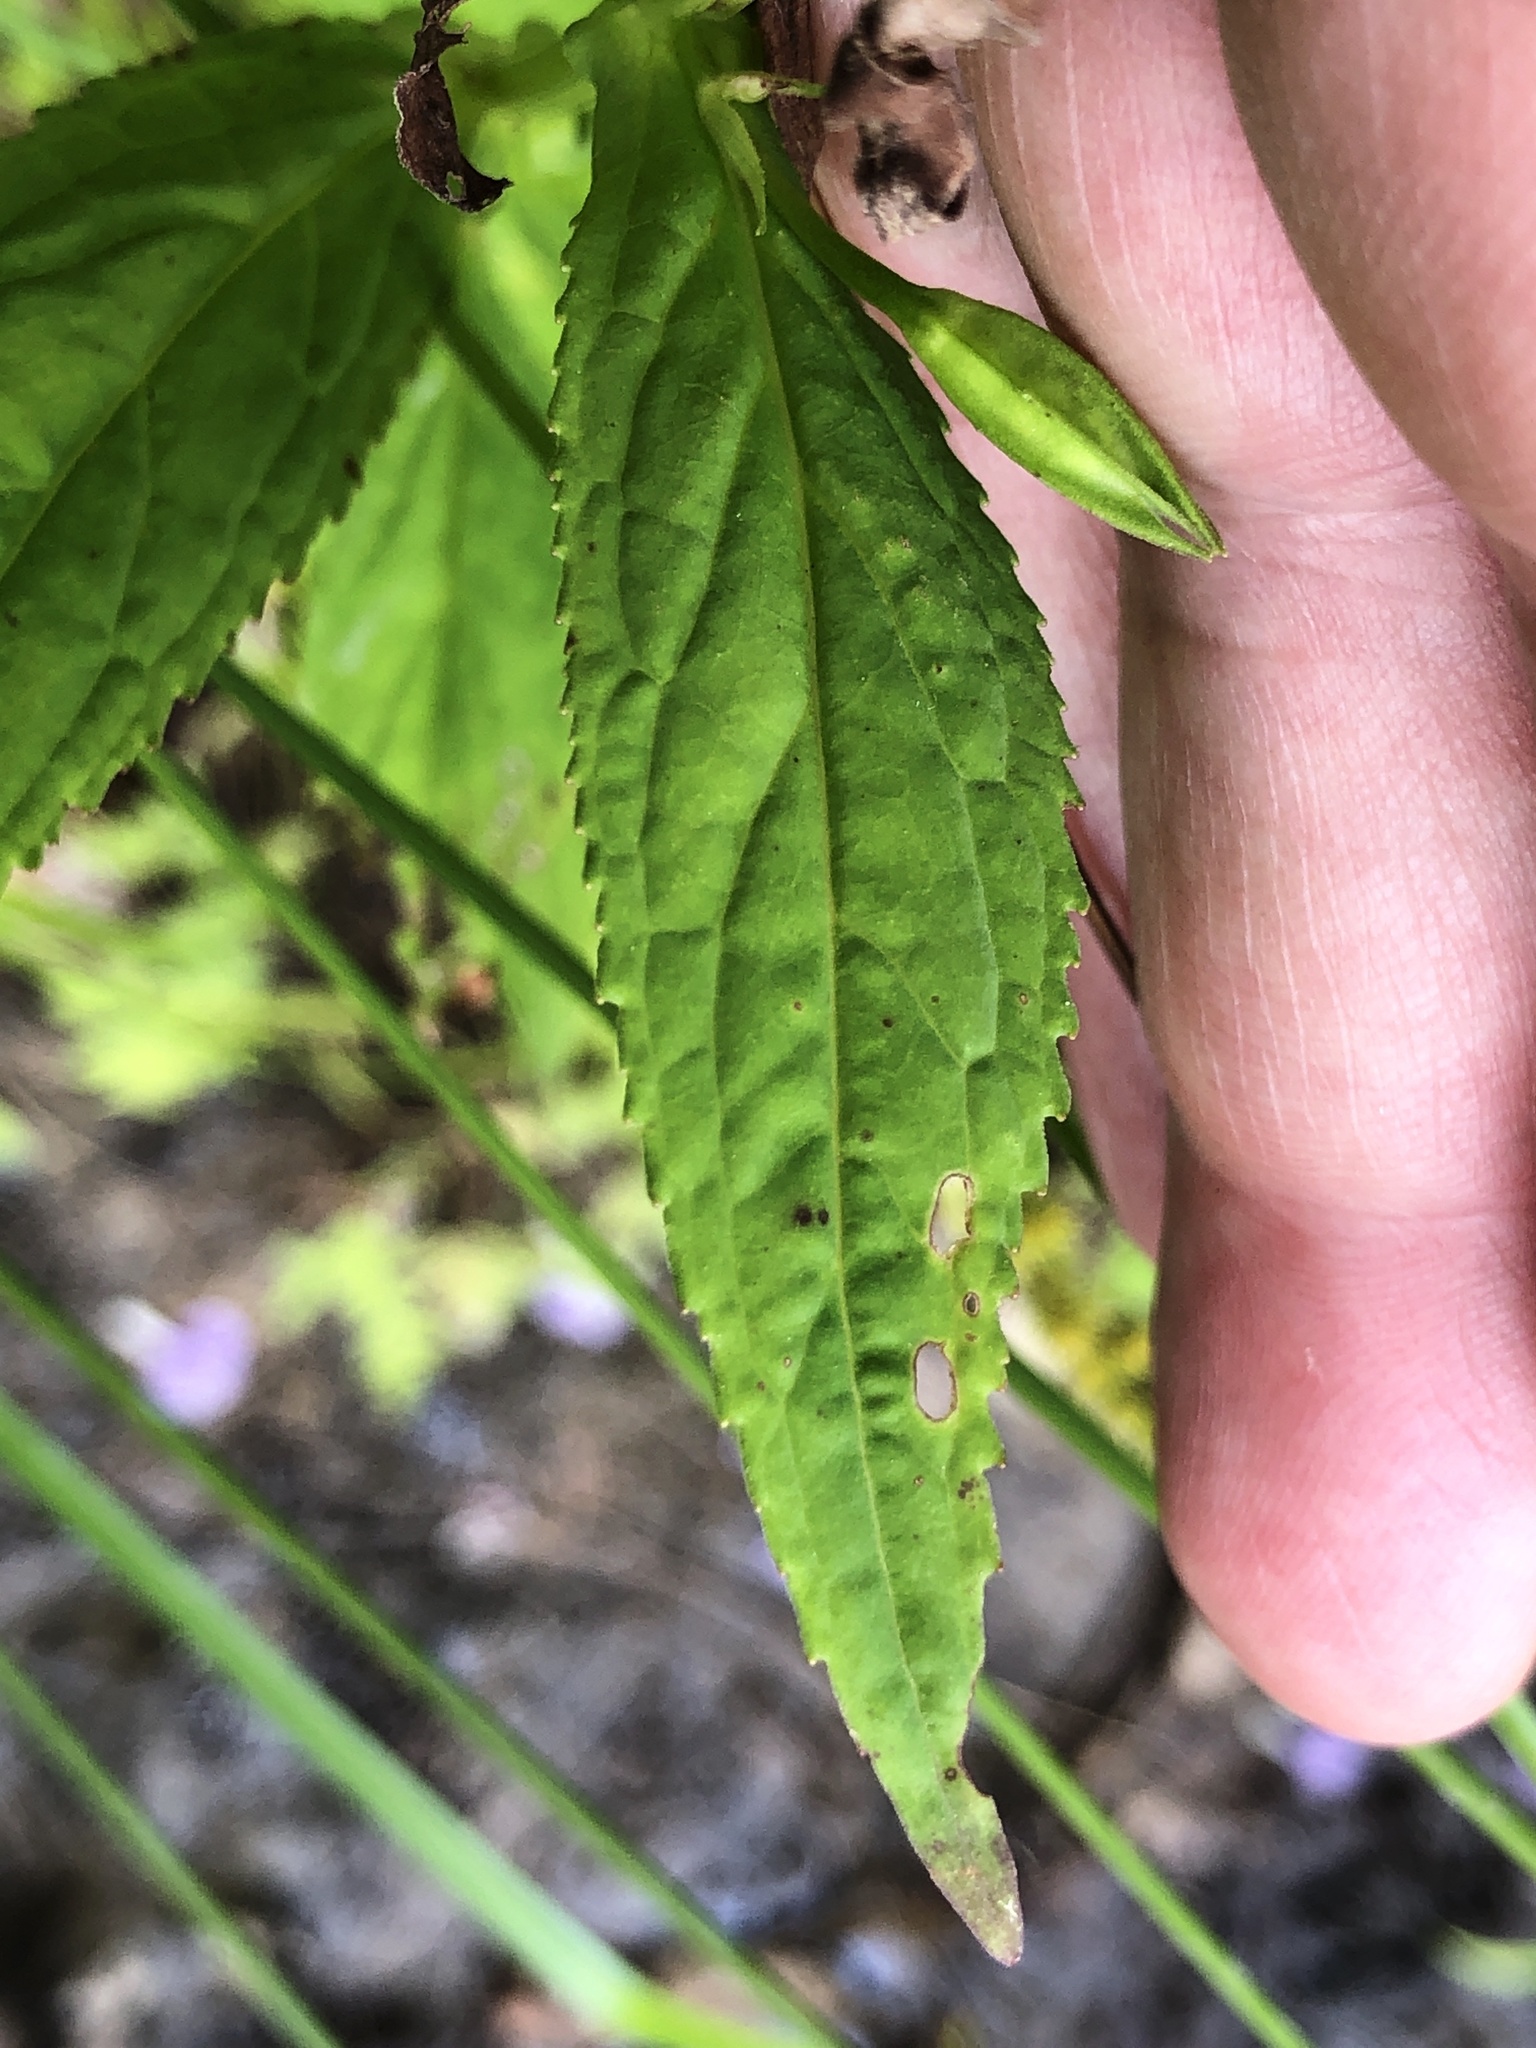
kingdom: Plantae
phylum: Tracheophyta
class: Magnoliopsida
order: Lamiales
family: Phrymaceae
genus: Mimulus
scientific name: Mimulus ringens
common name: Allegheny monkeyflower
